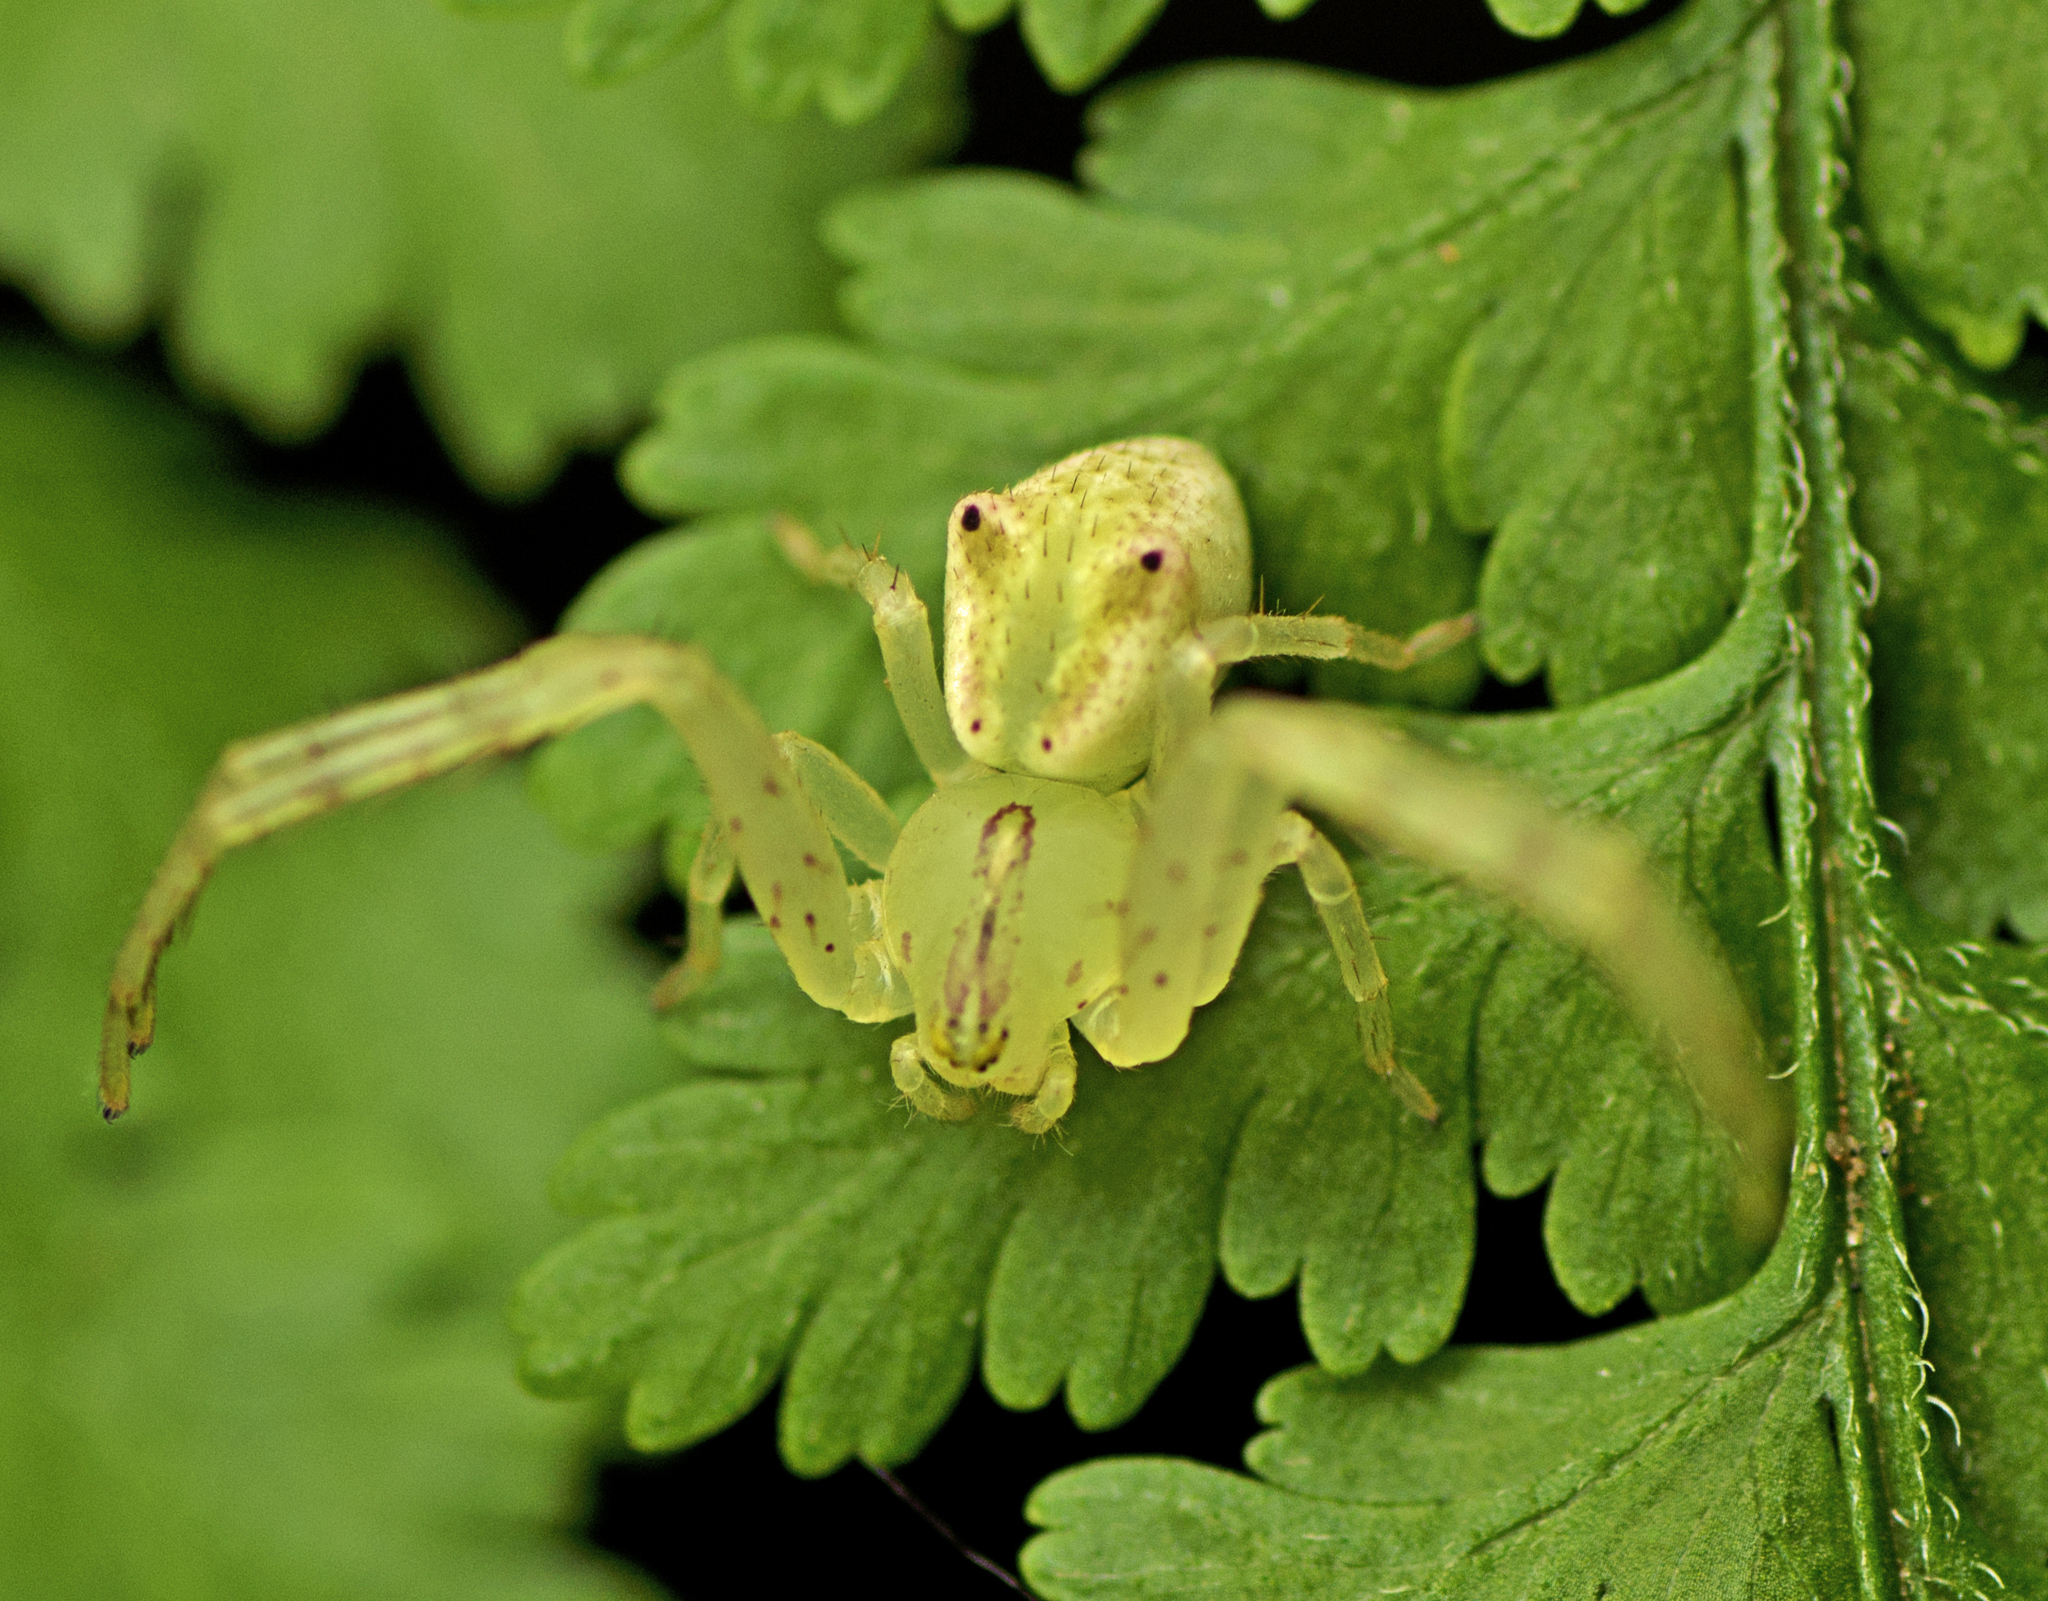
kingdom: Animalia
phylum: Arthropoda
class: Arachnida
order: Araneae
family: Thomisidae
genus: Sidymella
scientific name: Sidymella rubrosignata
